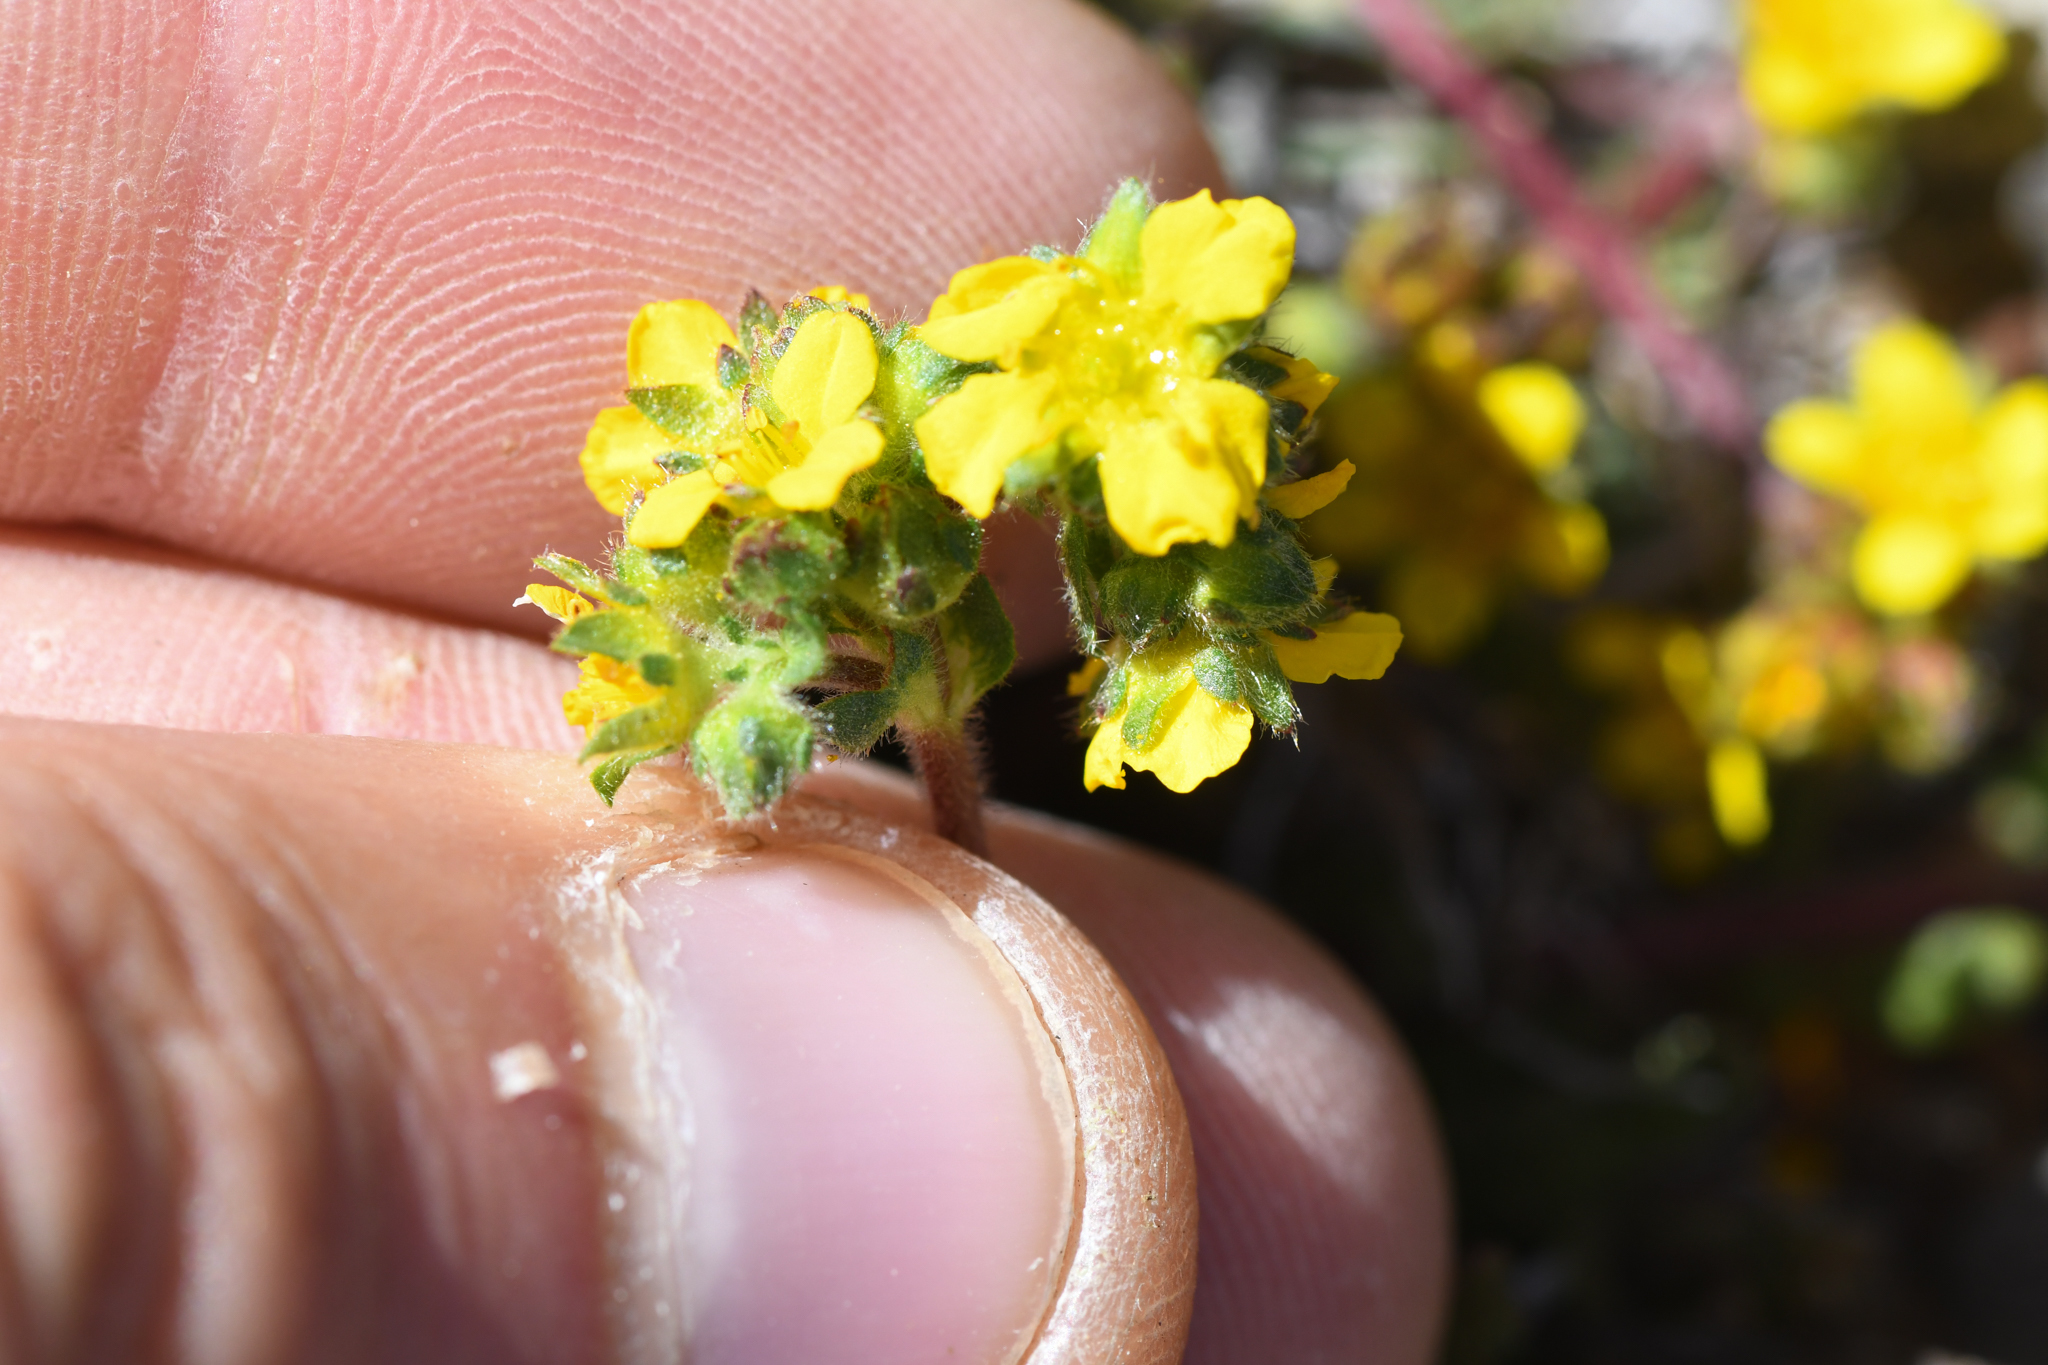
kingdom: Plantae
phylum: Tracheophyta
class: Magnoliopsida
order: Rosales
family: Rosaceae
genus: Potentilla
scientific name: Potentilla lycopodioides
